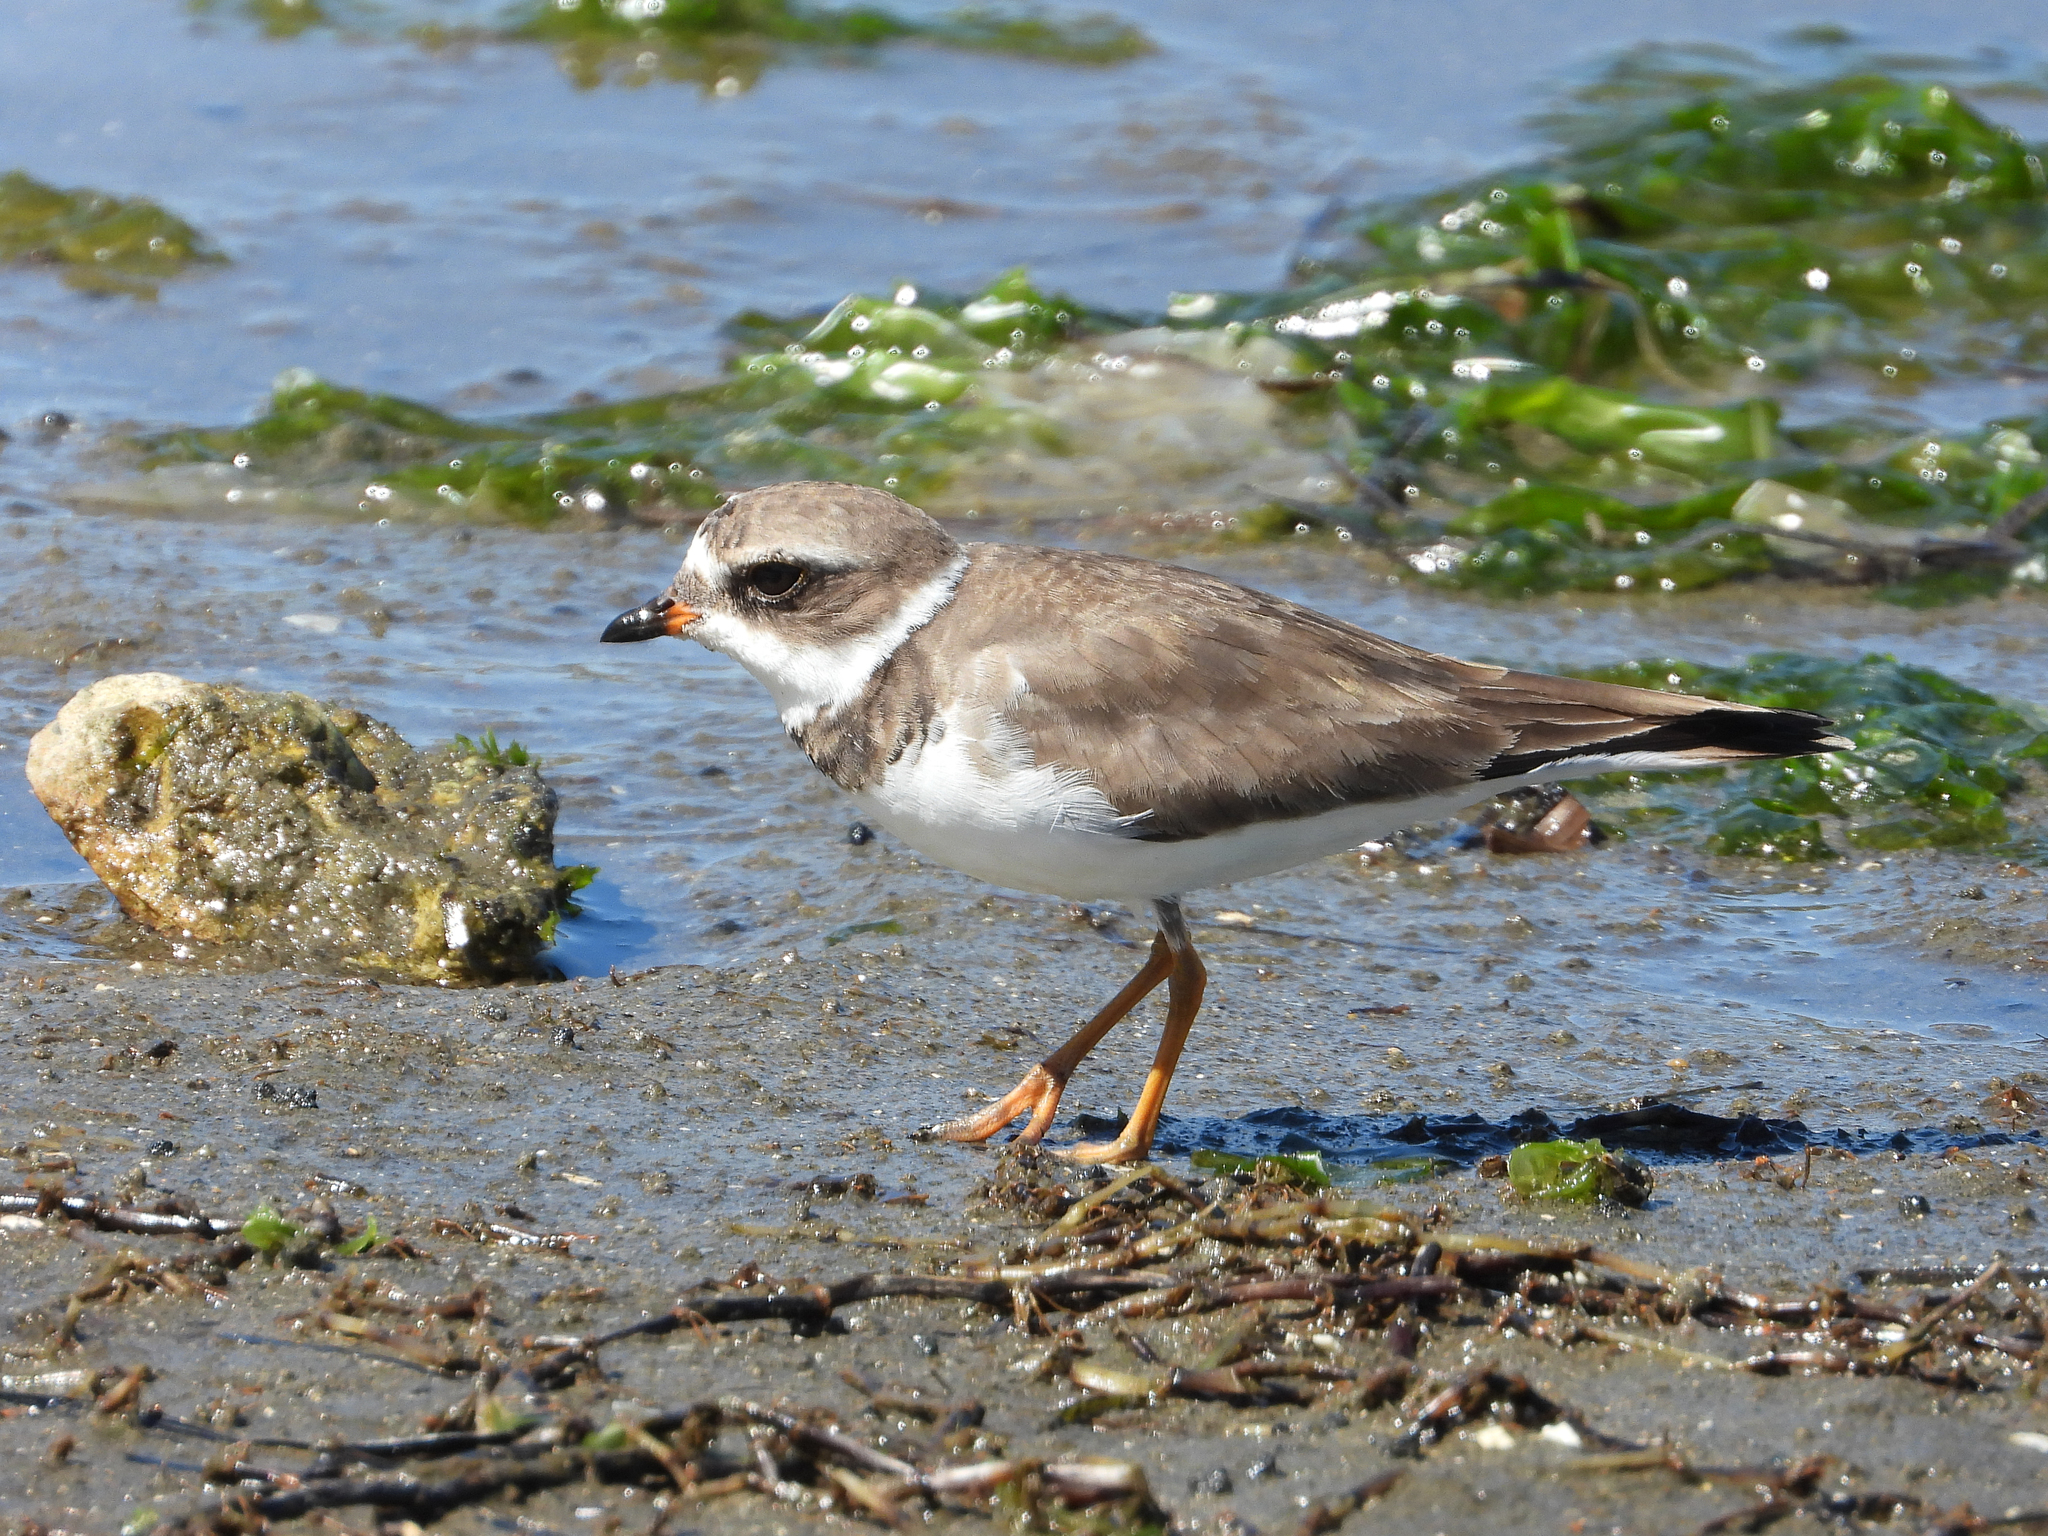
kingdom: Animalia
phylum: Chordata
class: Aves
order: Charadriiformes
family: Charadriidae
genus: Charadrius
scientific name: Charadrius semipalmatus
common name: Semipalmated plover
